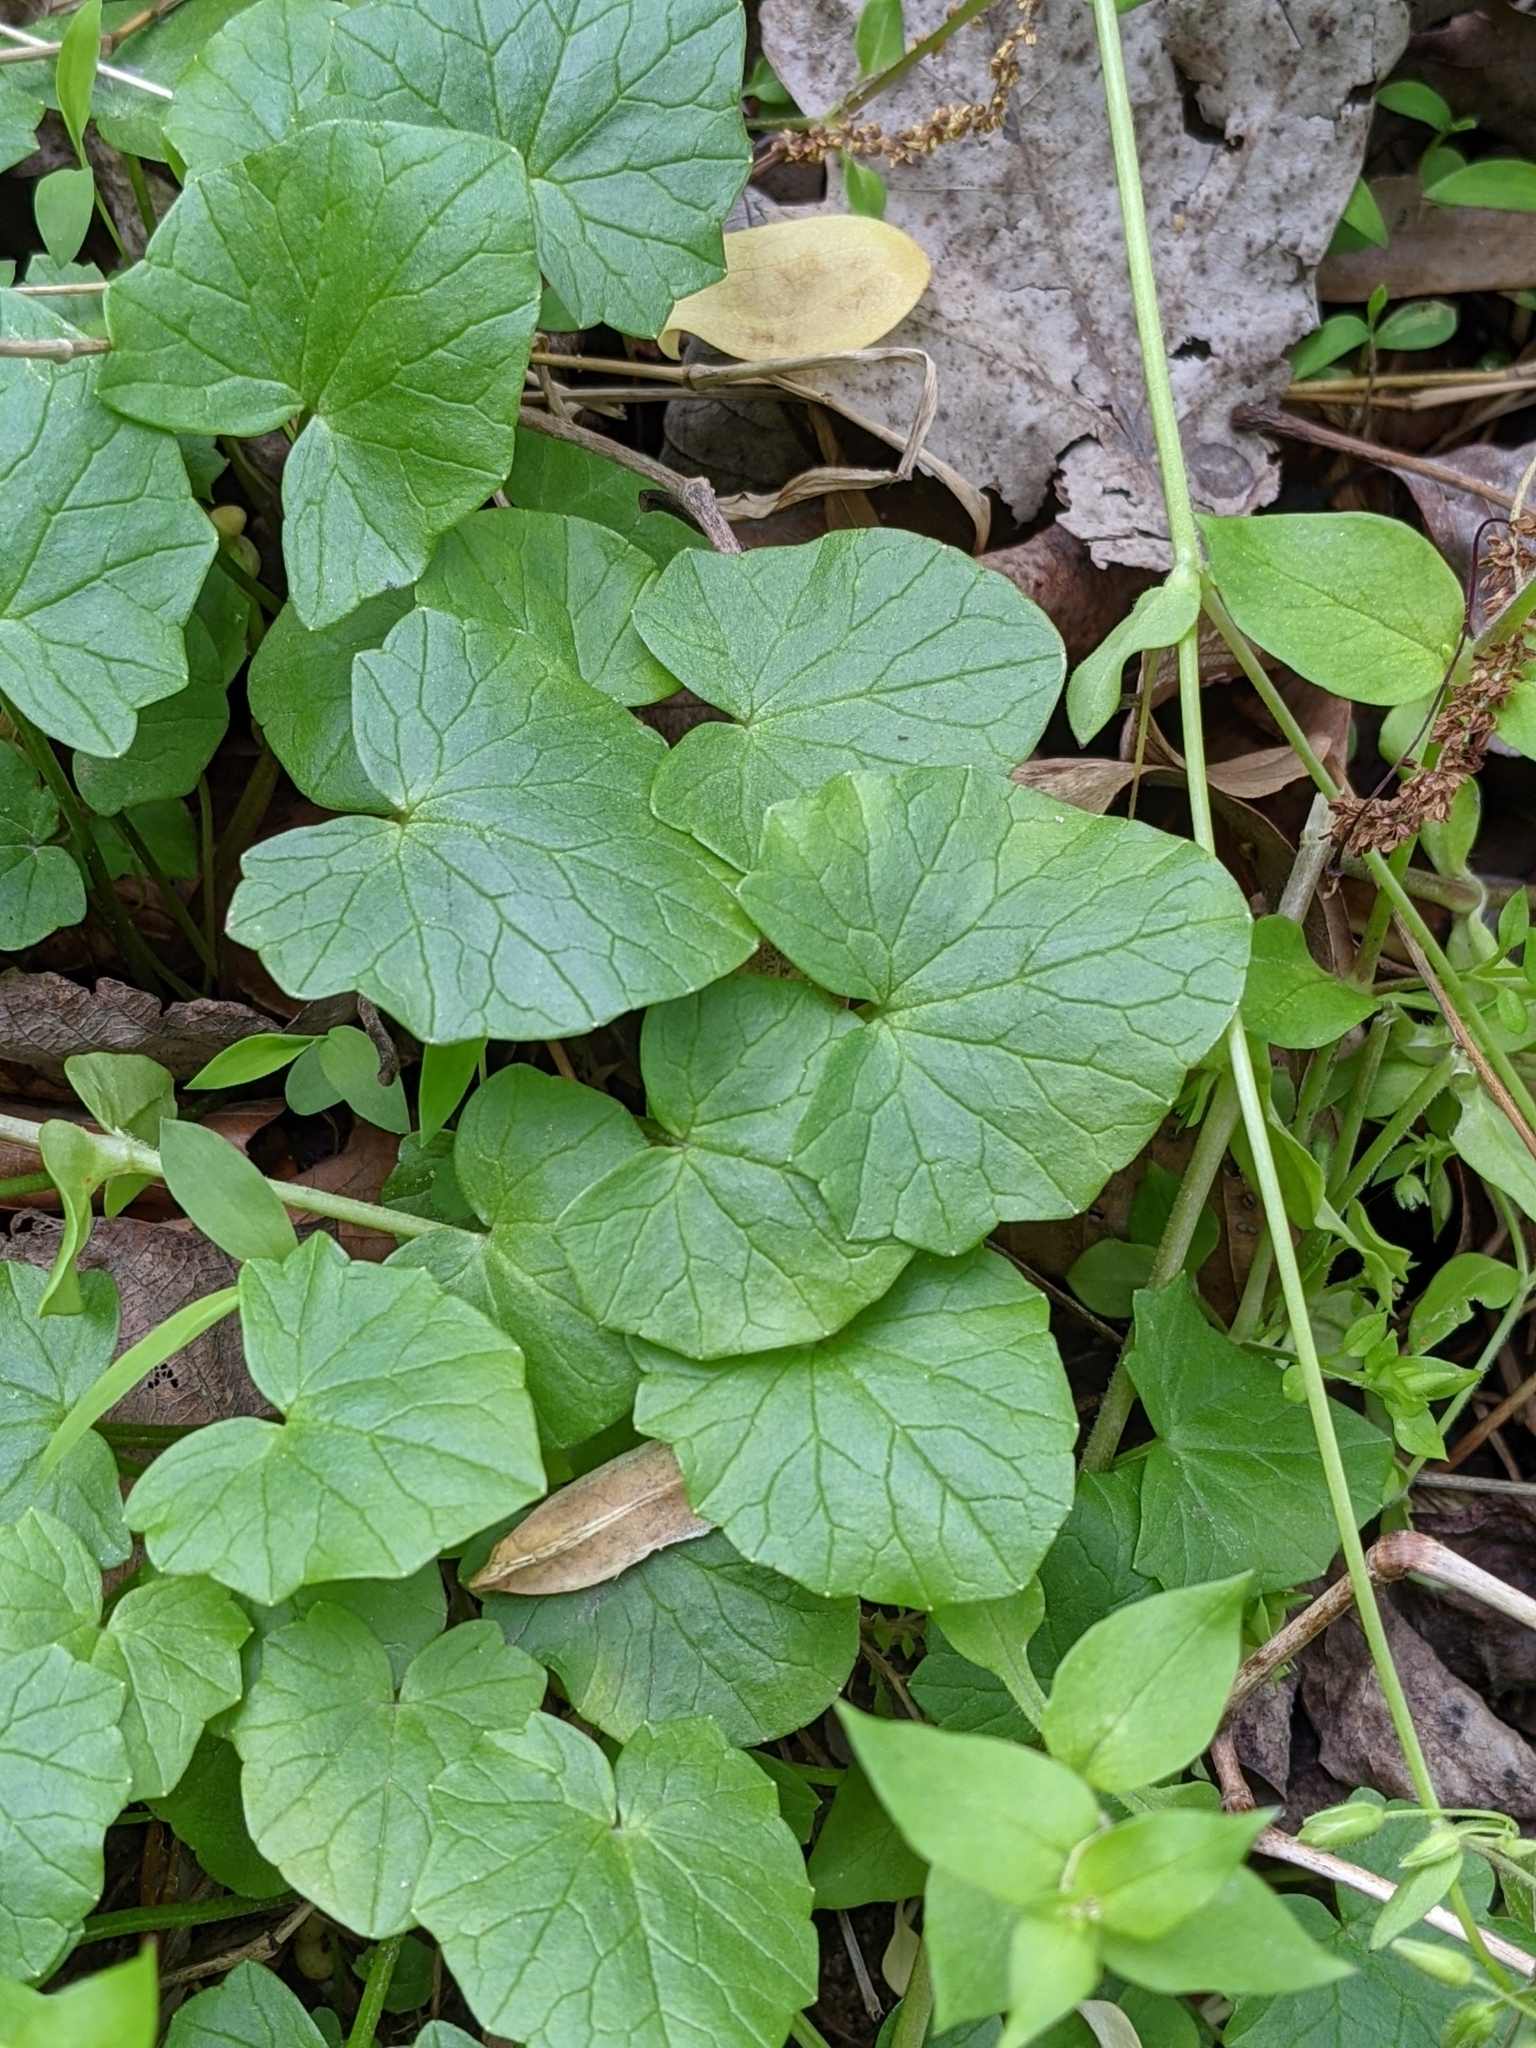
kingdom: Plantae
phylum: Tracheophyta
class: Magnoliopsida
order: Ranunculales
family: Ranunculaceae
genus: Ficaria
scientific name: Ficaria verna
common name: Lesser celandine
